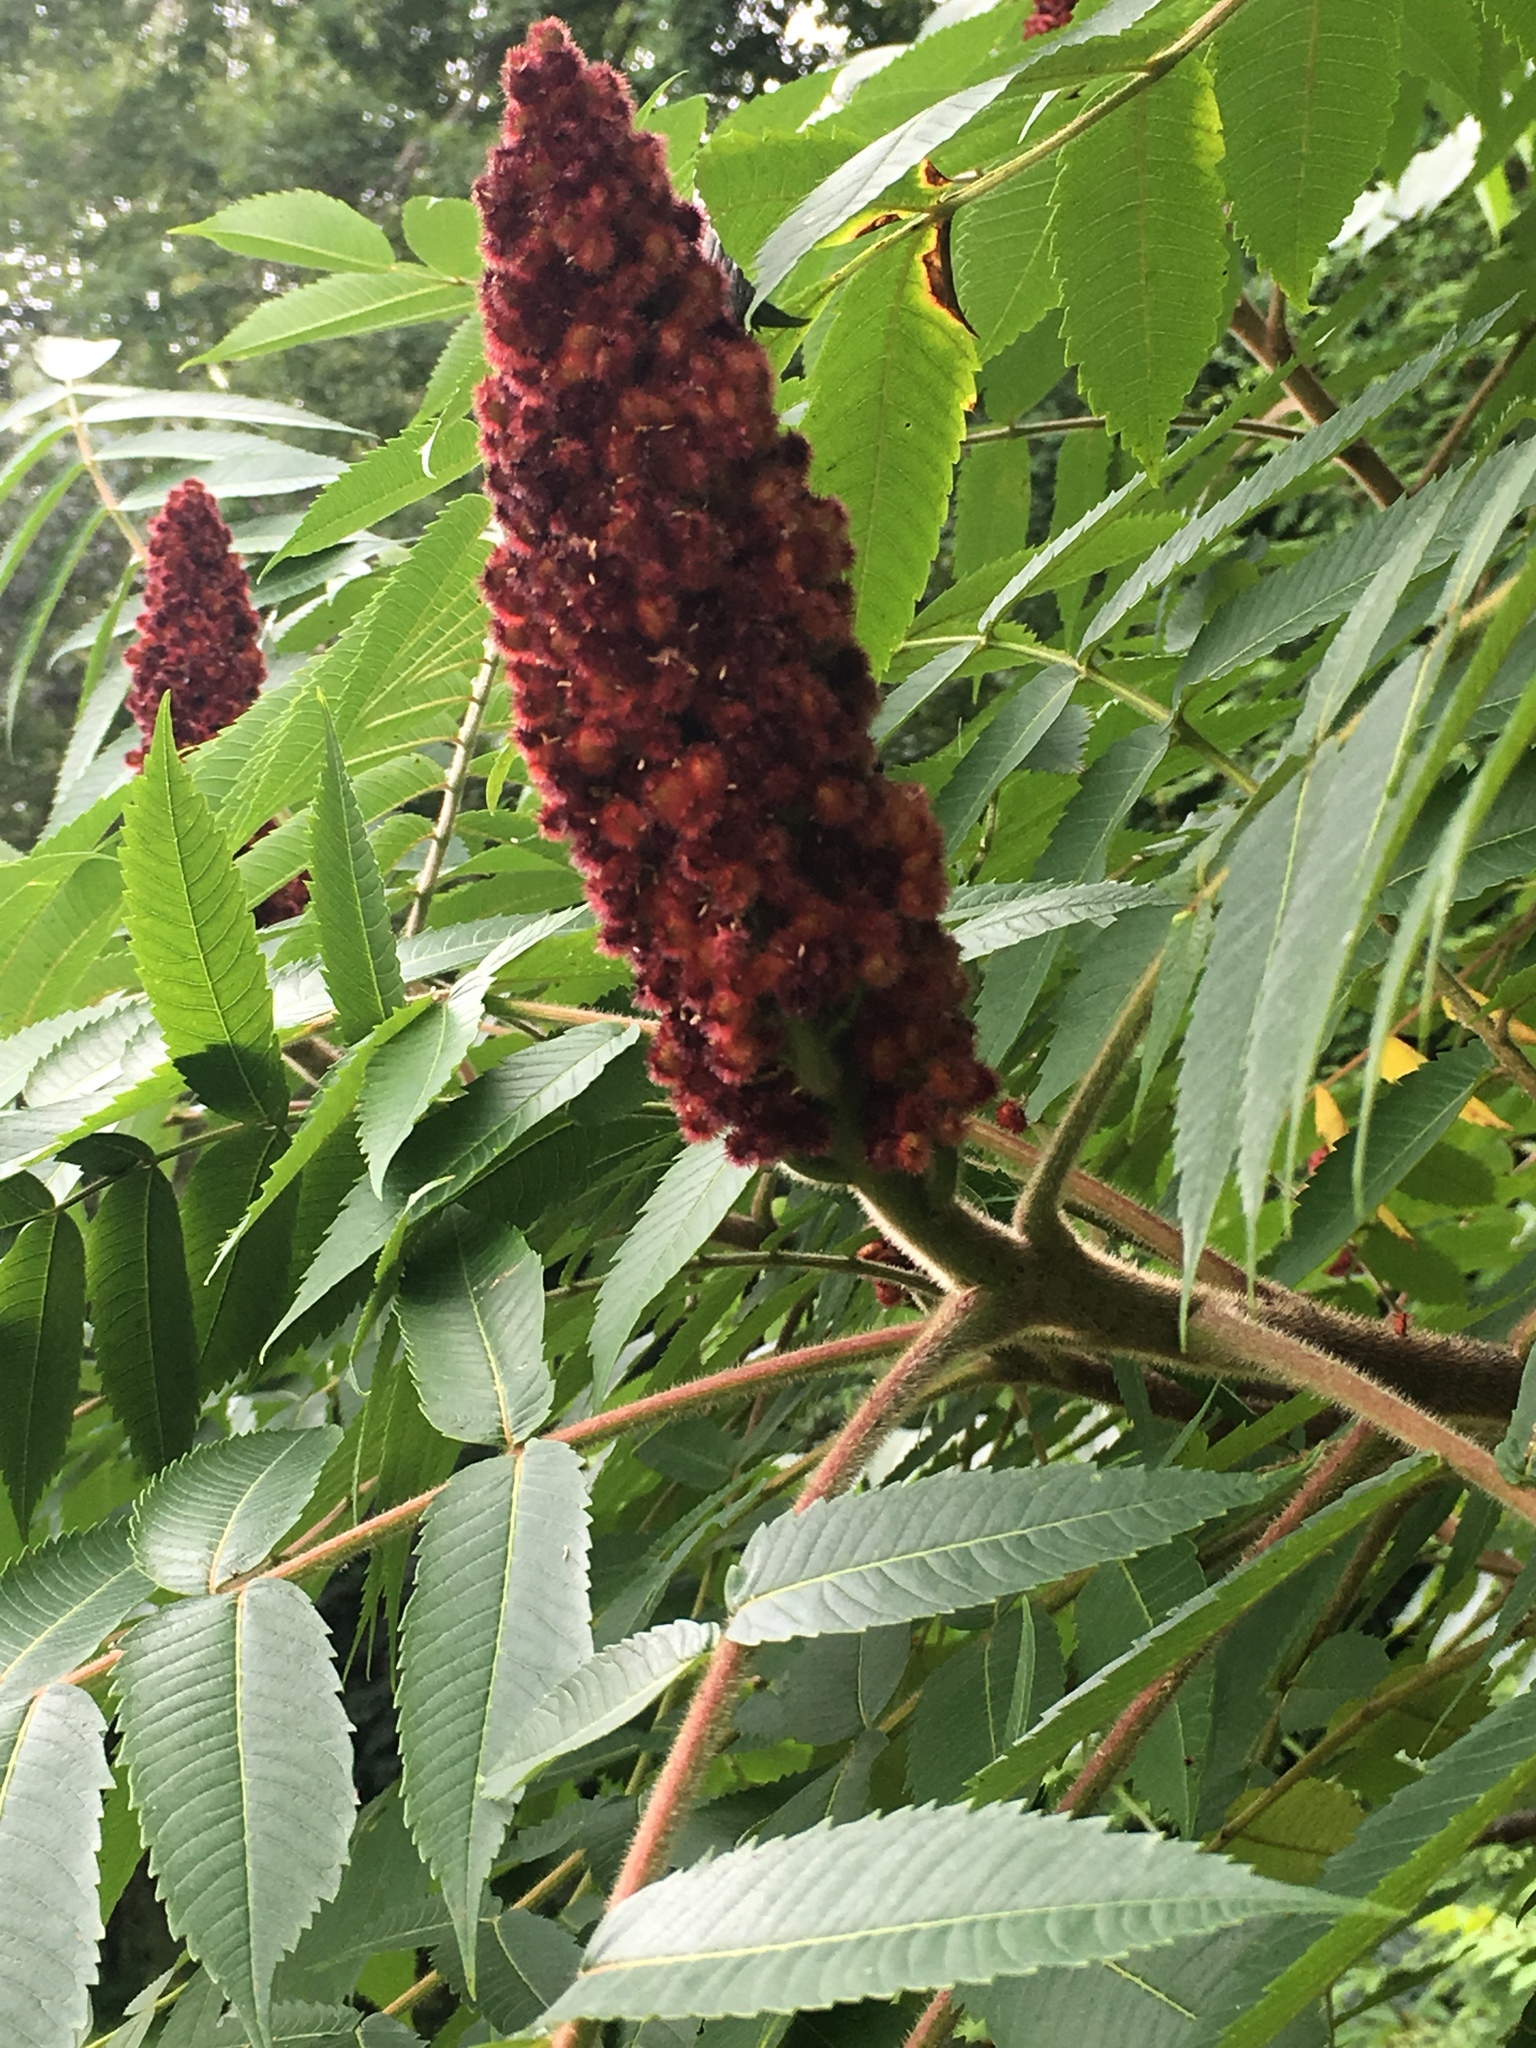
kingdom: Plantae
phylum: Tracheophyta
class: Magnoliopsida
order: Sapindales
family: Anacardiaceae
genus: Rhus
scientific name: Rhus typhina
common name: Staghorn sumac
